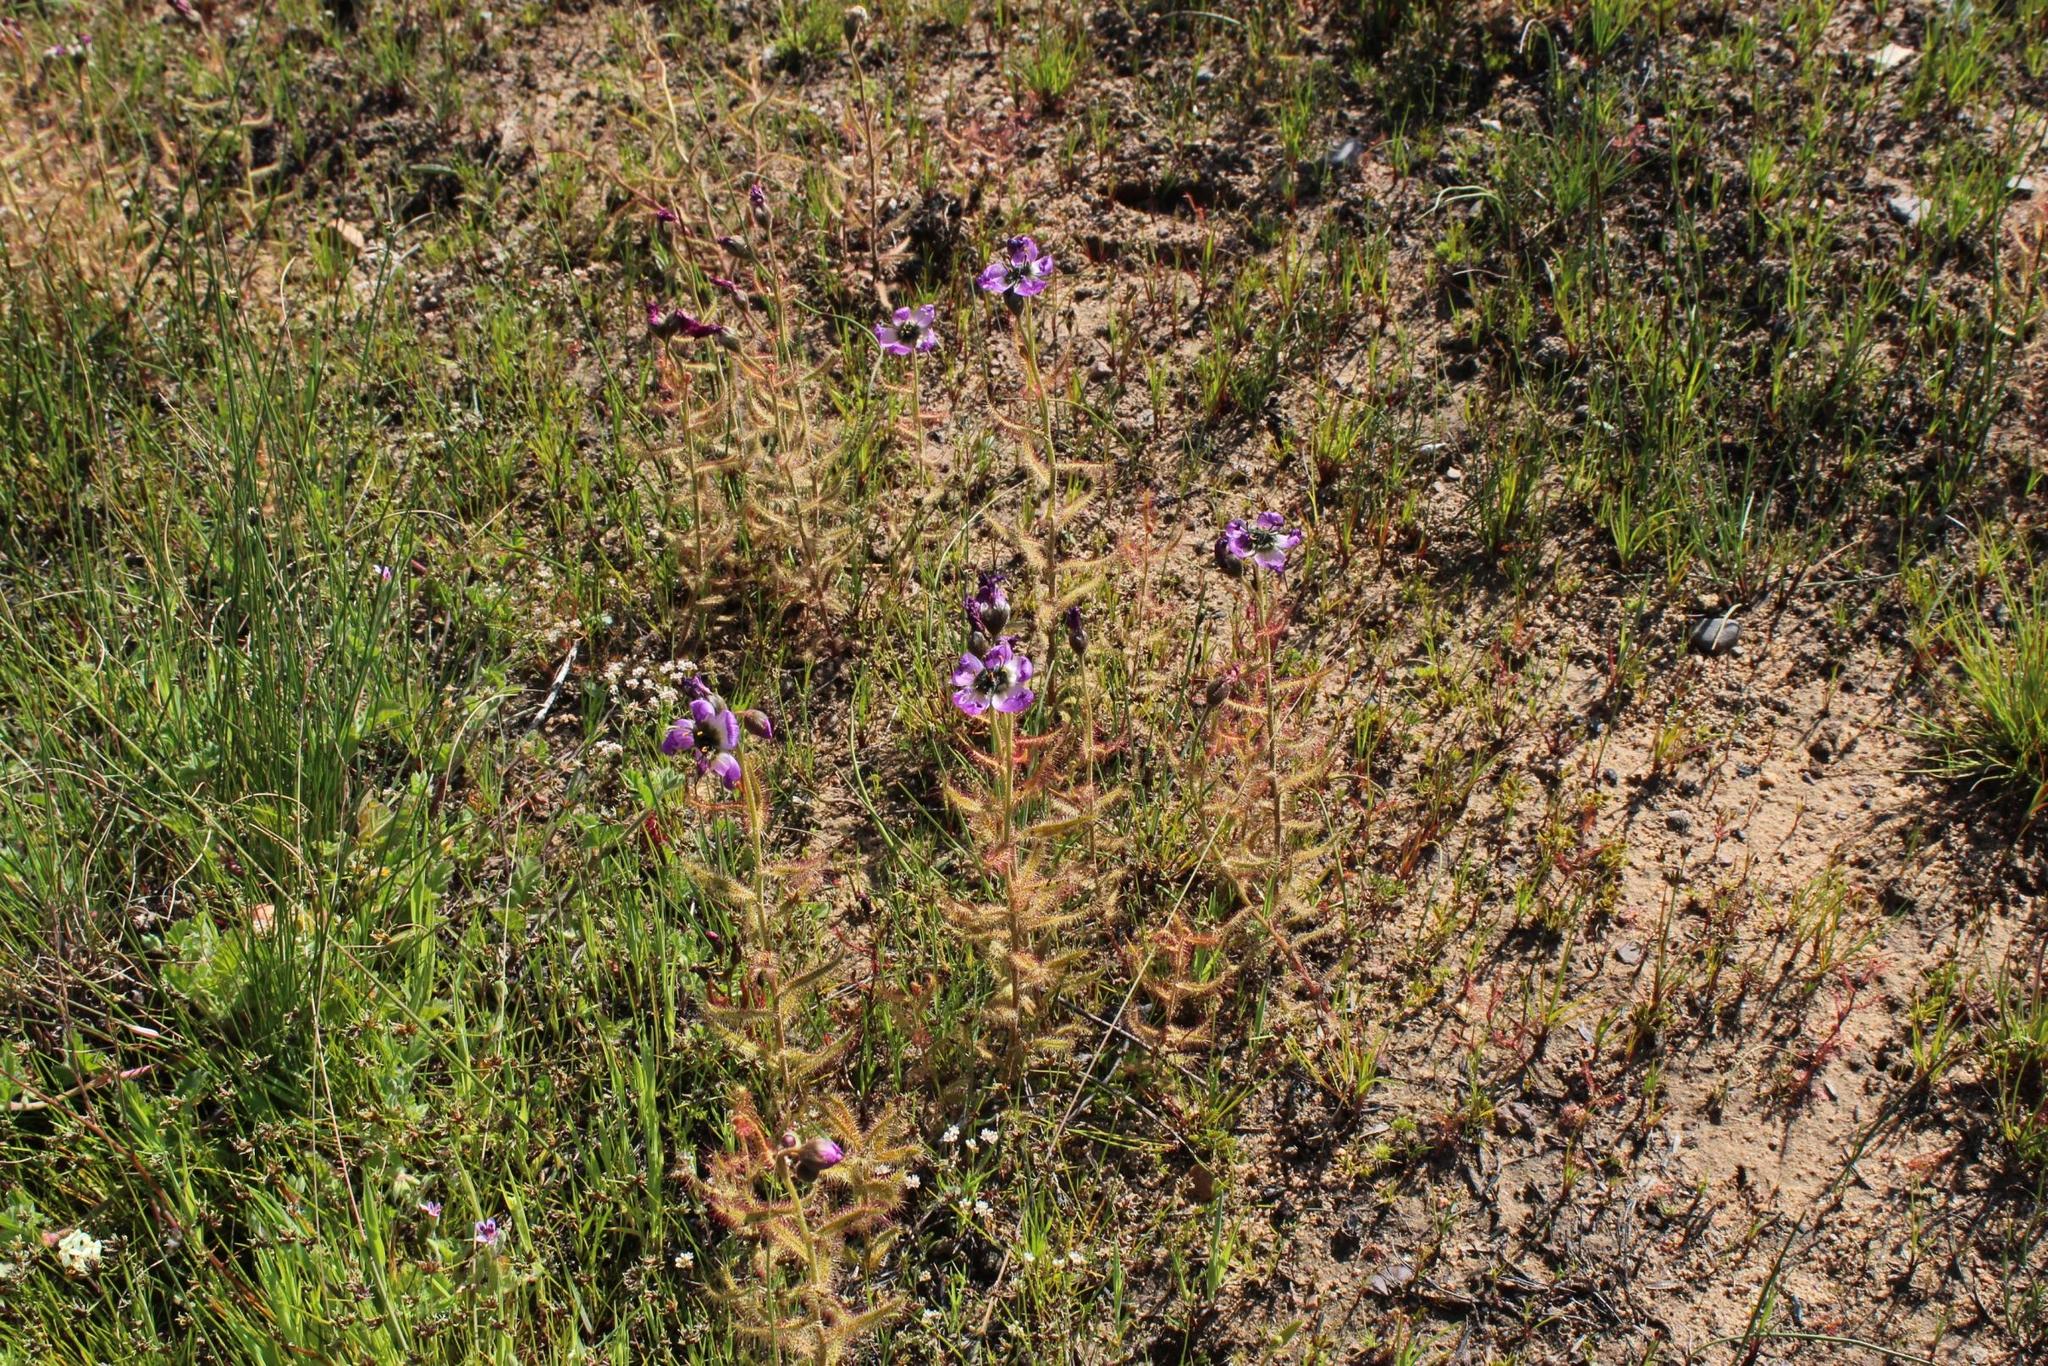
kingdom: Plantae
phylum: Tracheophyta
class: Magnoliopsida
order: Caryophyllales
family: Droseraceae
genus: Drosera
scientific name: Drosera cistiflora
